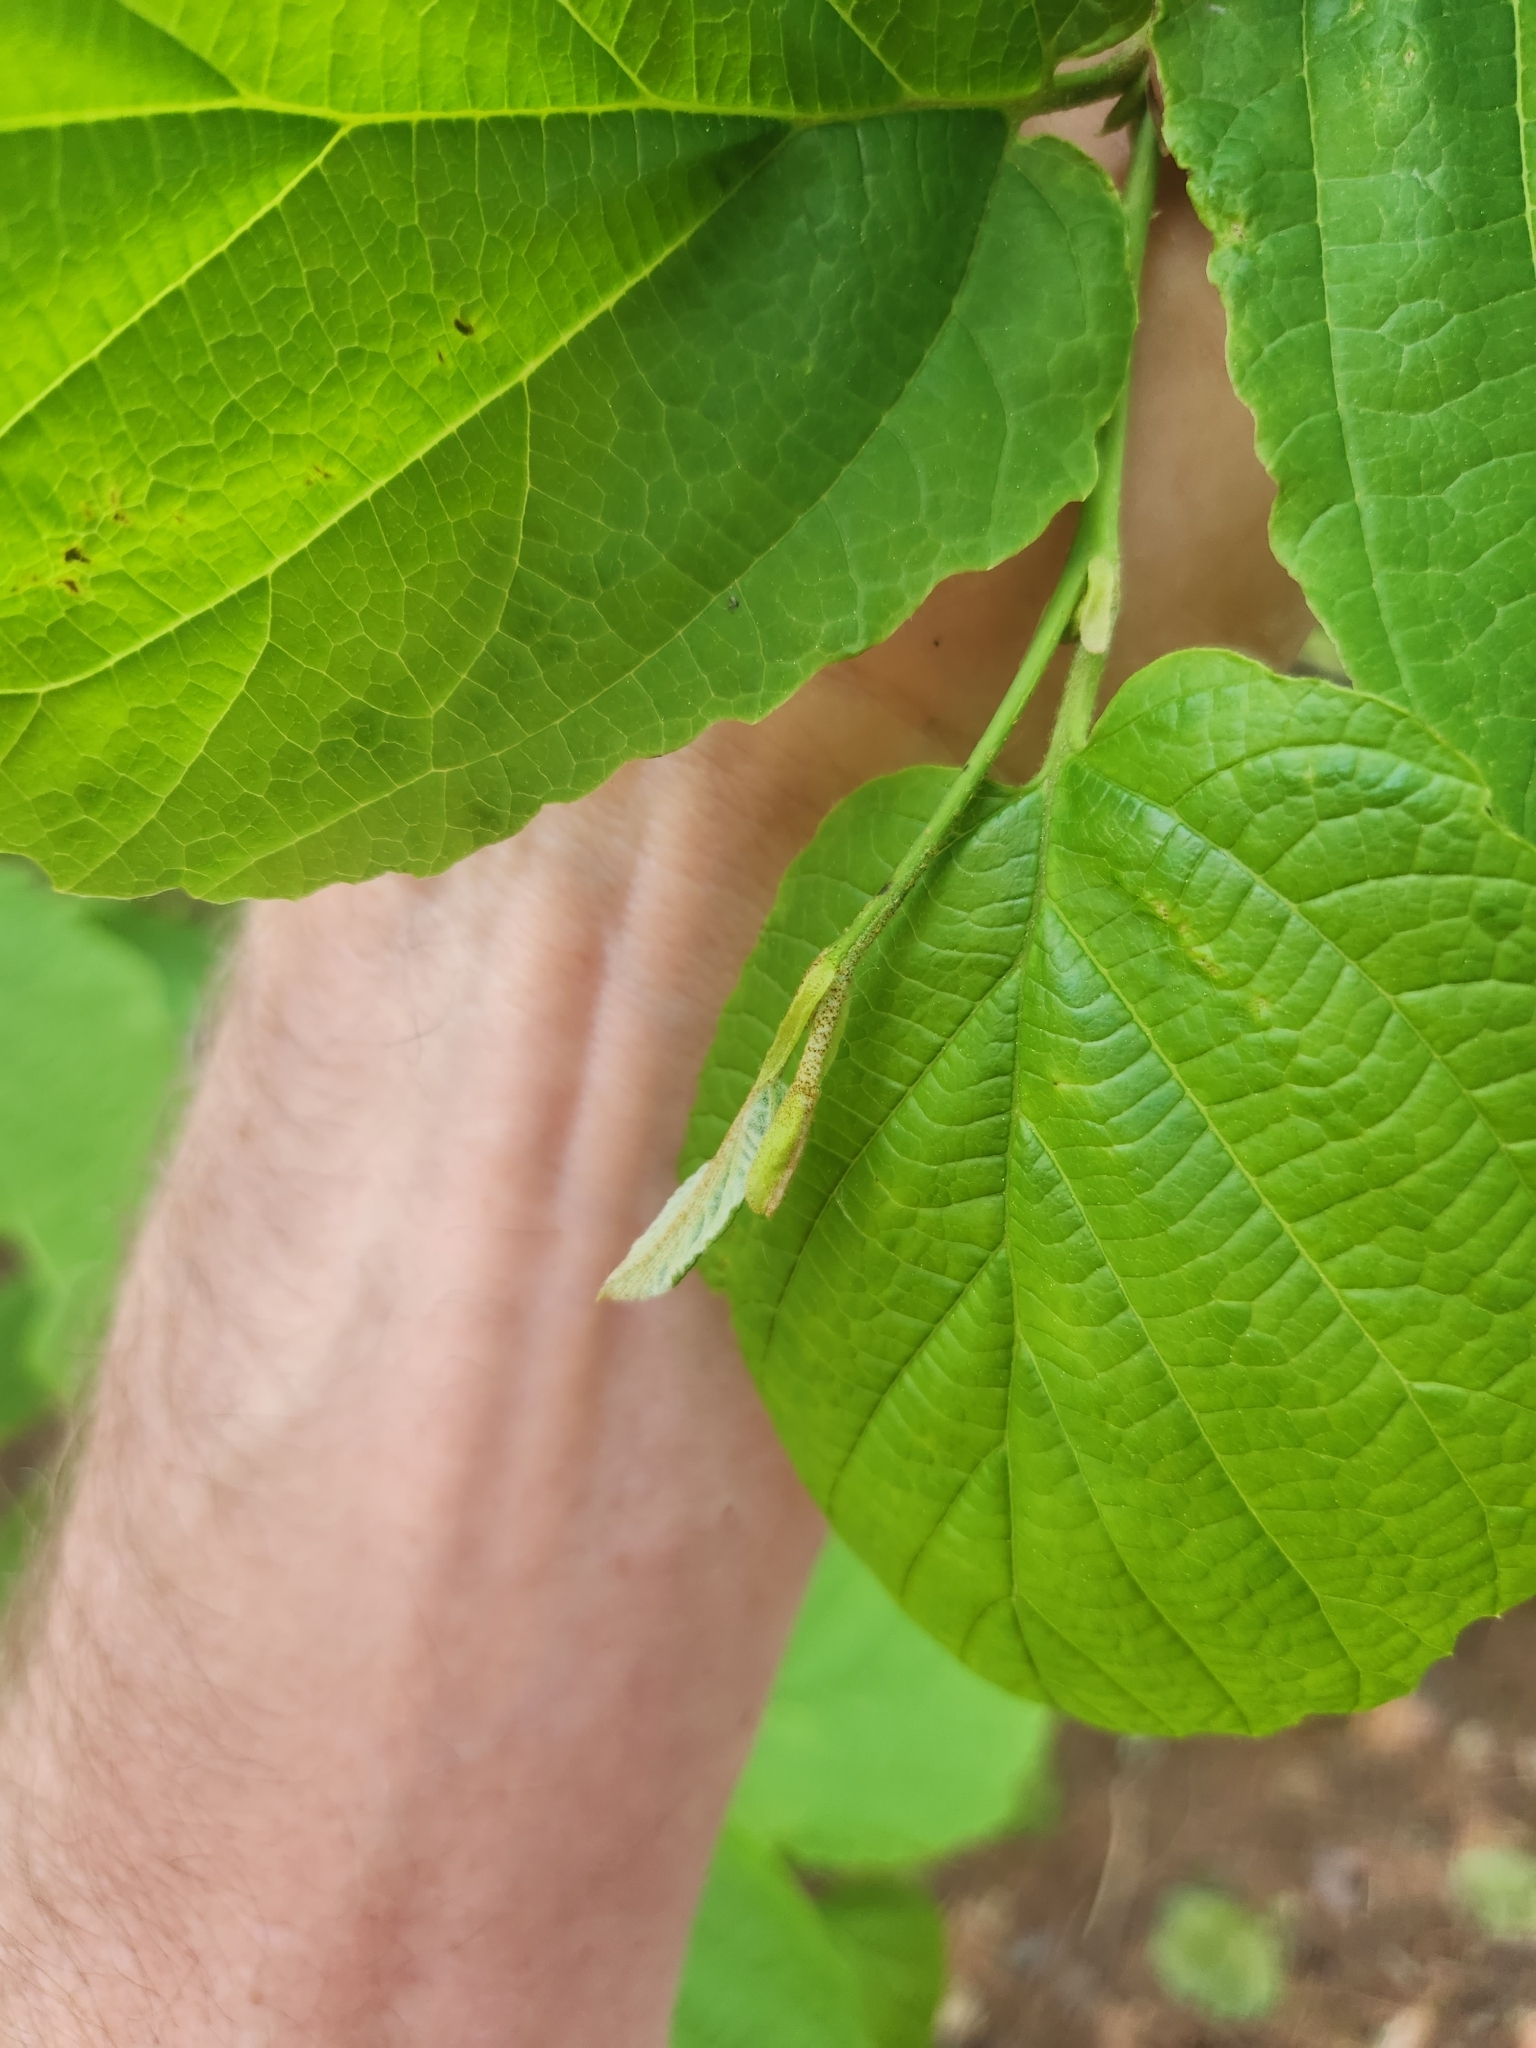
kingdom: Plantae
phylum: Tracheophyta
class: Magnoliopsida
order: Saxifragales
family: Hamamelidaceae
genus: Hamamelis
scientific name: Hamamelis virginiana
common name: Witch-hazel
